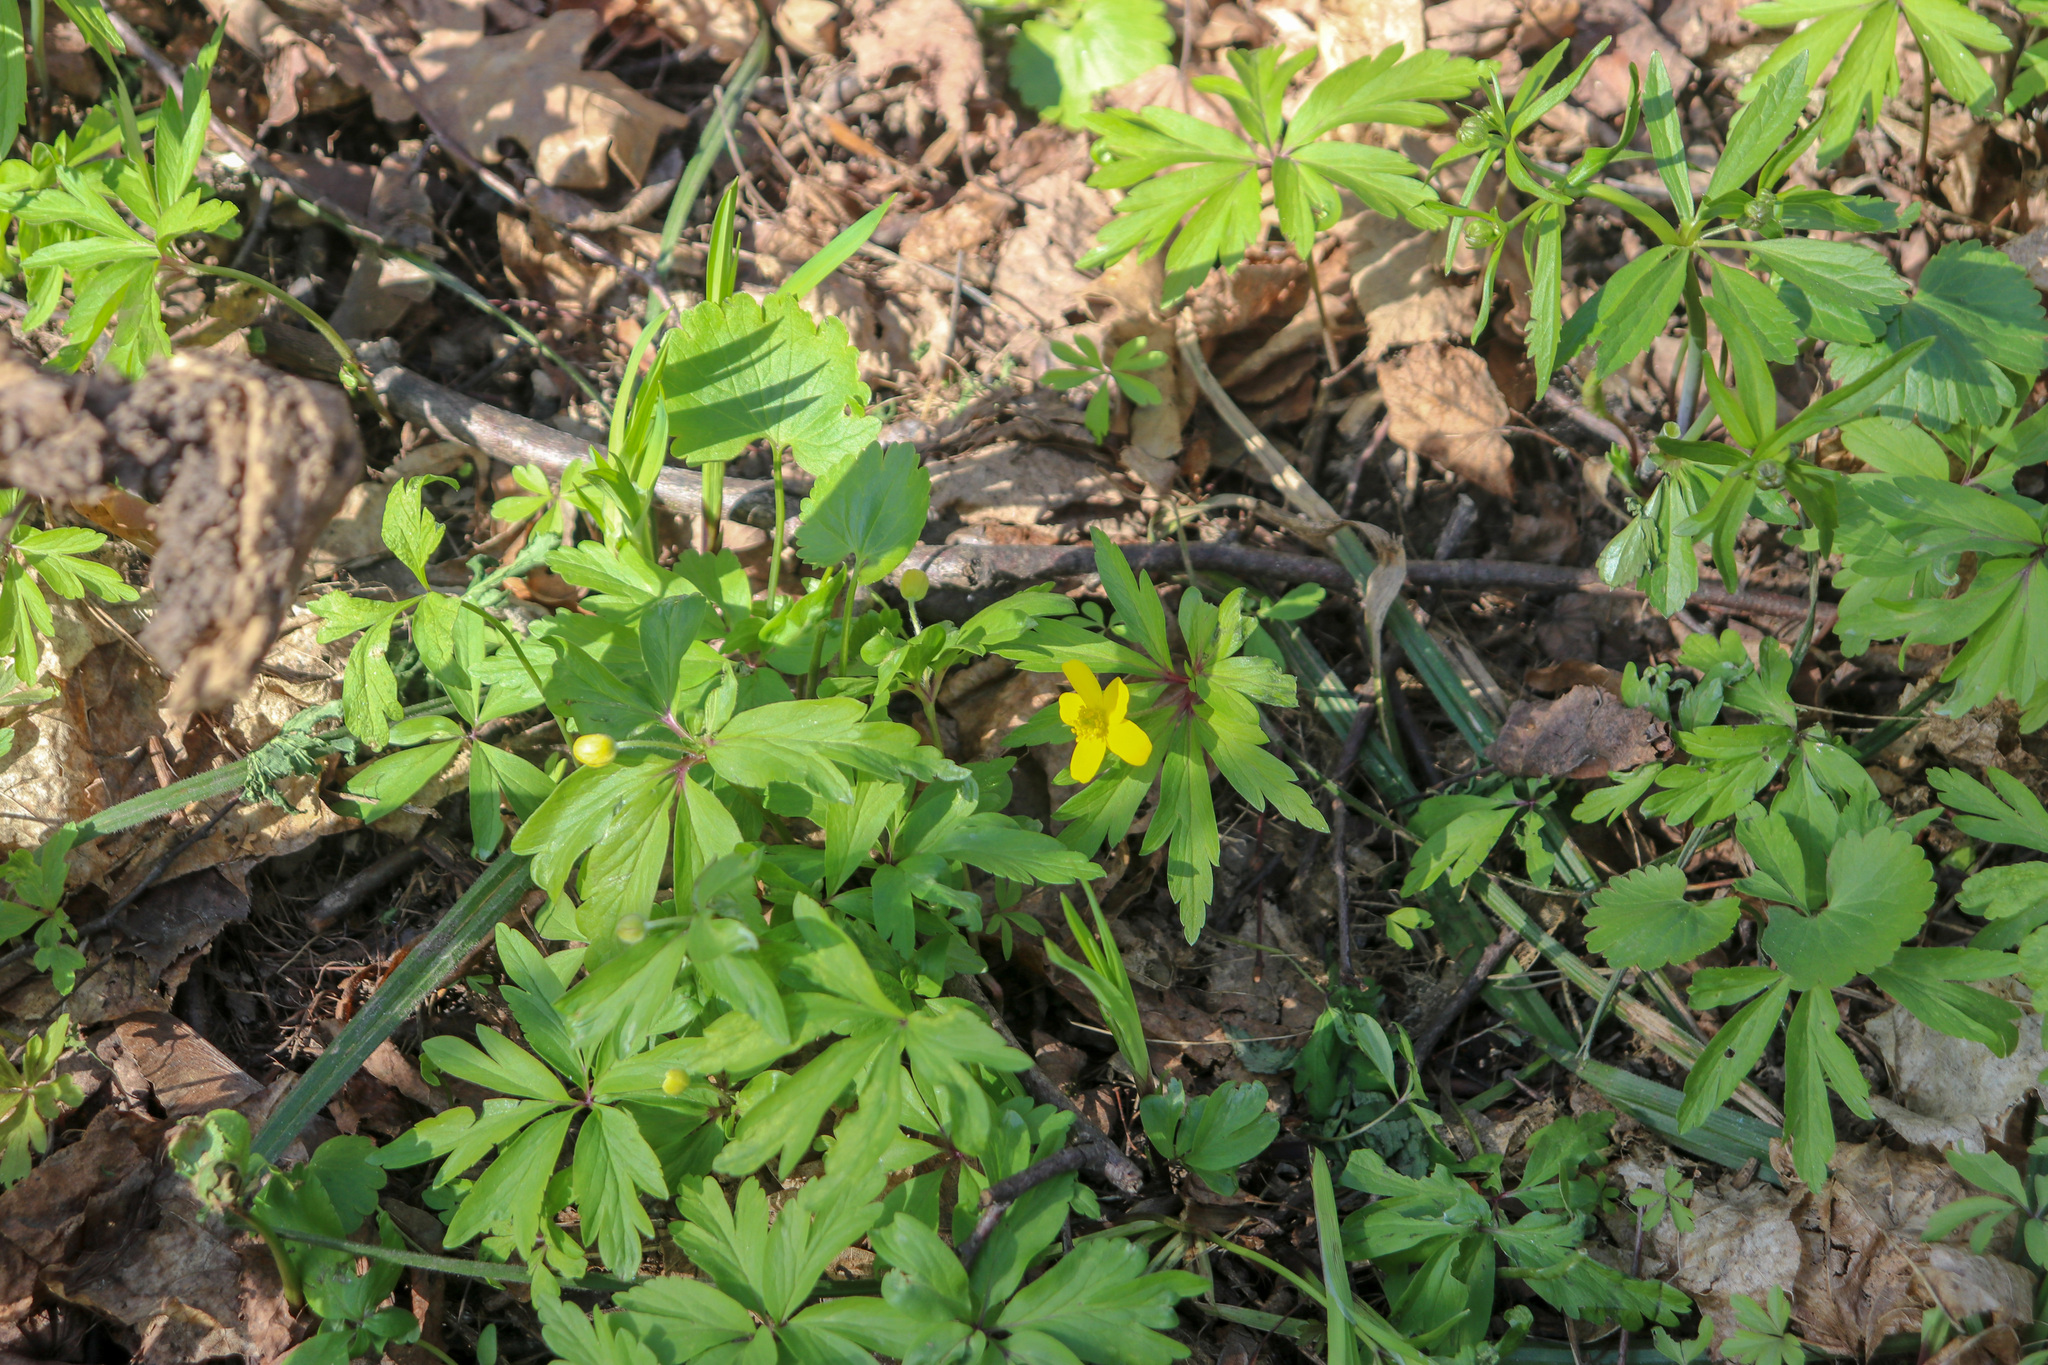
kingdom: Plantae
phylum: Tracheophyta
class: Magnoliopsida
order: Ranunculales
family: Ranunculaceae
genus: Anemone
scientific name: Anemone ranunculoides
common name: Yellow anemone
